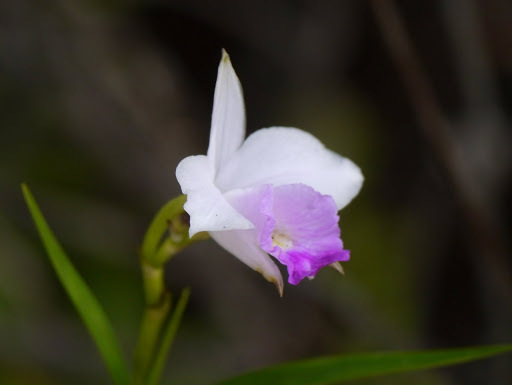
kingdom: Plantae
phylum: Tracheophyta
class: Liliopsida
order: Asparagales
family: Orchidaceae
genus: Arundina
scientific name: Arundina graminifolia
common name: Bamboo orchid
